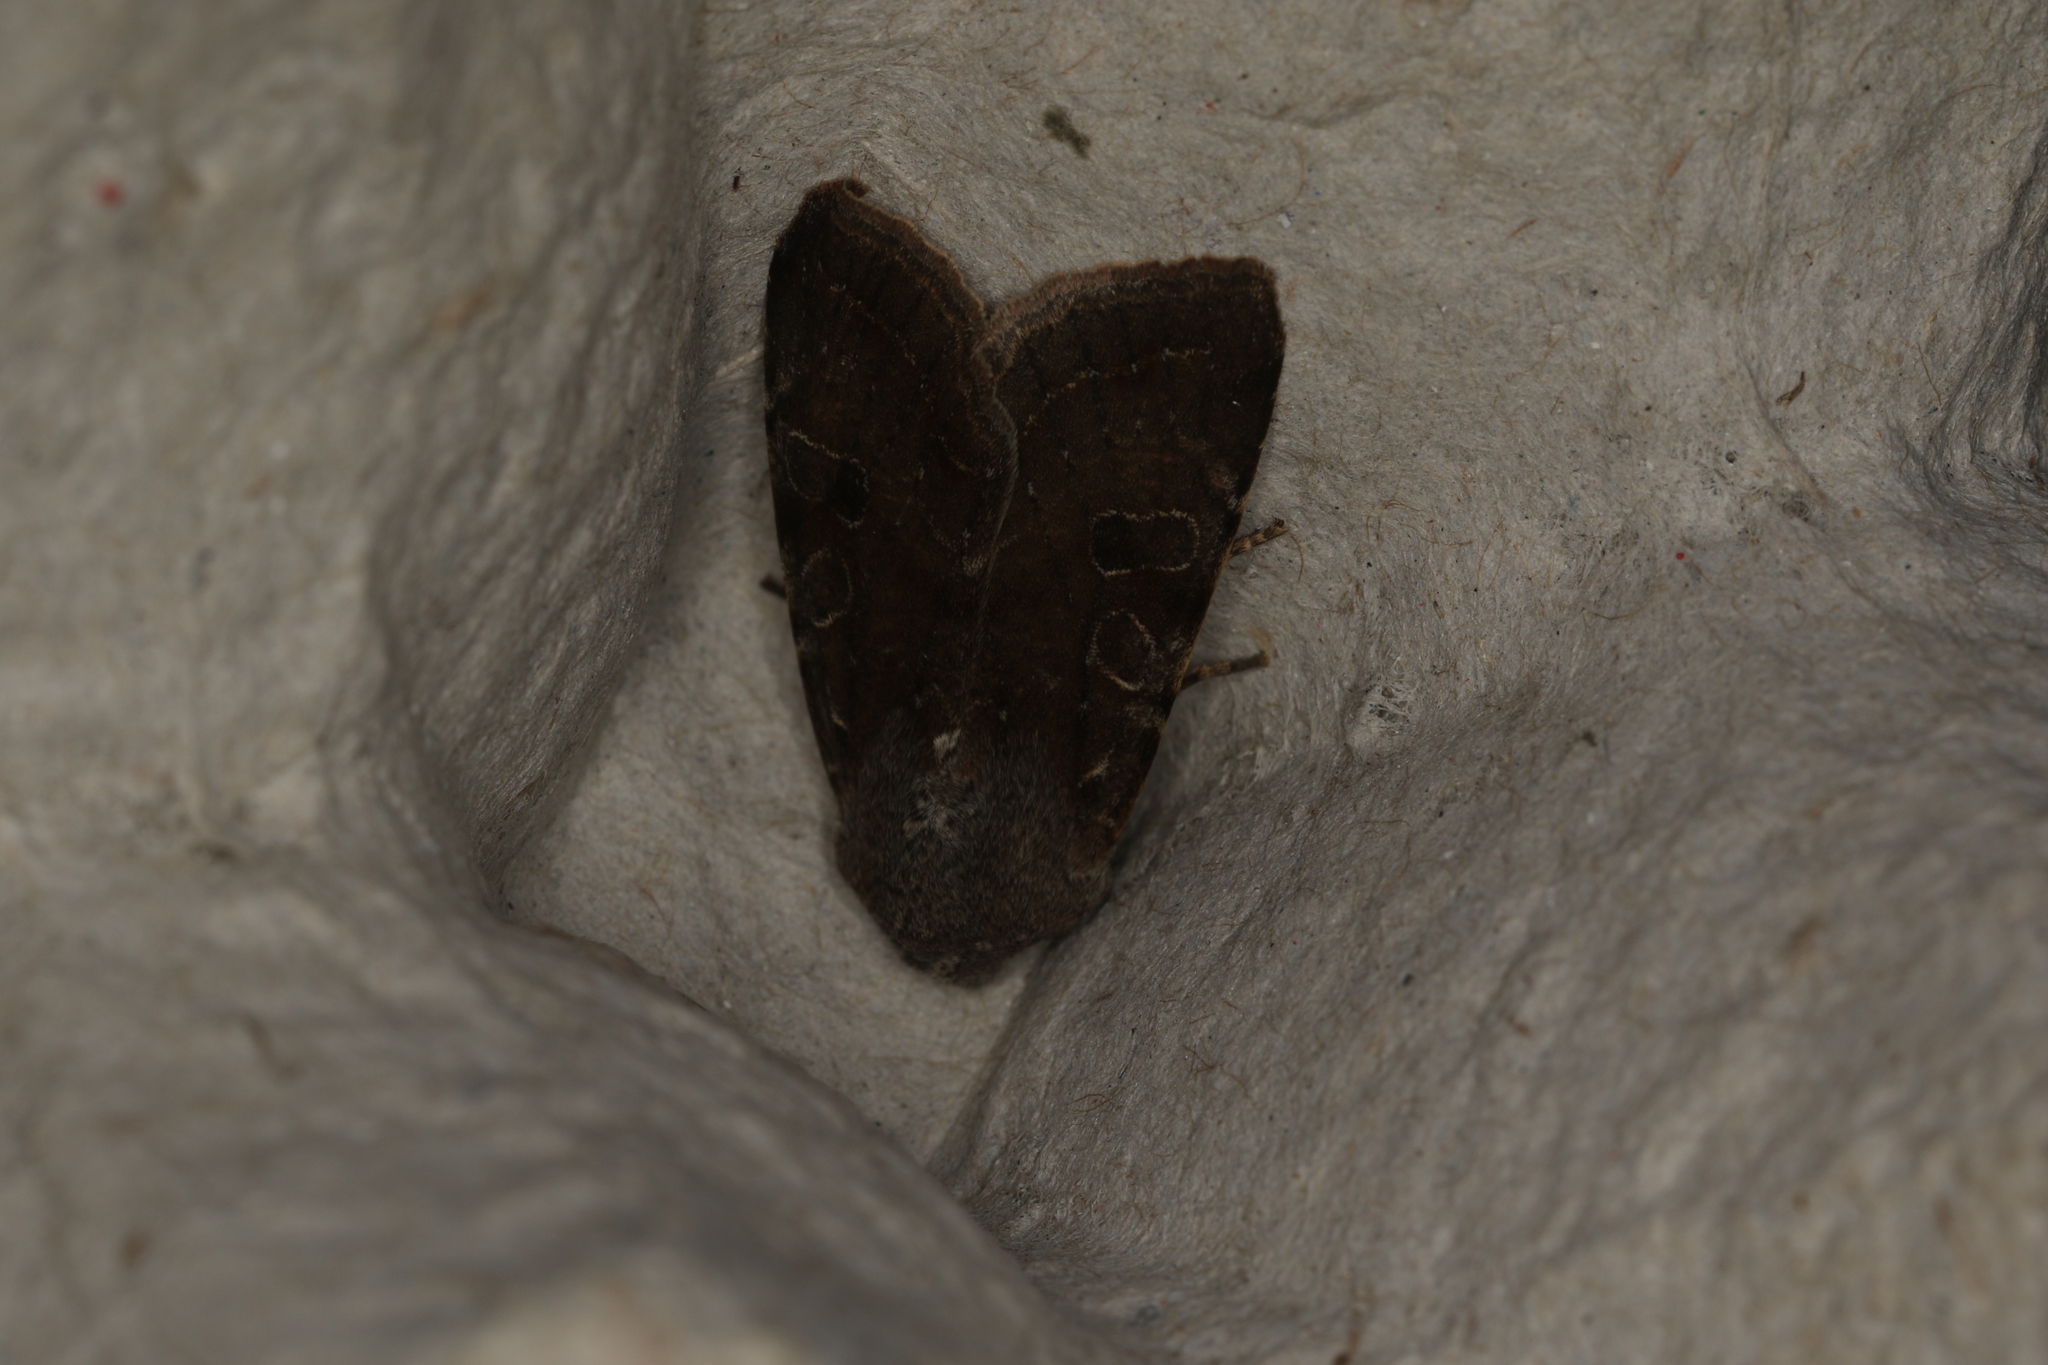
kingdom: Animalia
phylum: Arthropoda
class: Insecta
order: Lepidoptera
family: Noctuidae
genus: Orthosia
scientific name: Orthosia incerta
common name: Clouded drab
